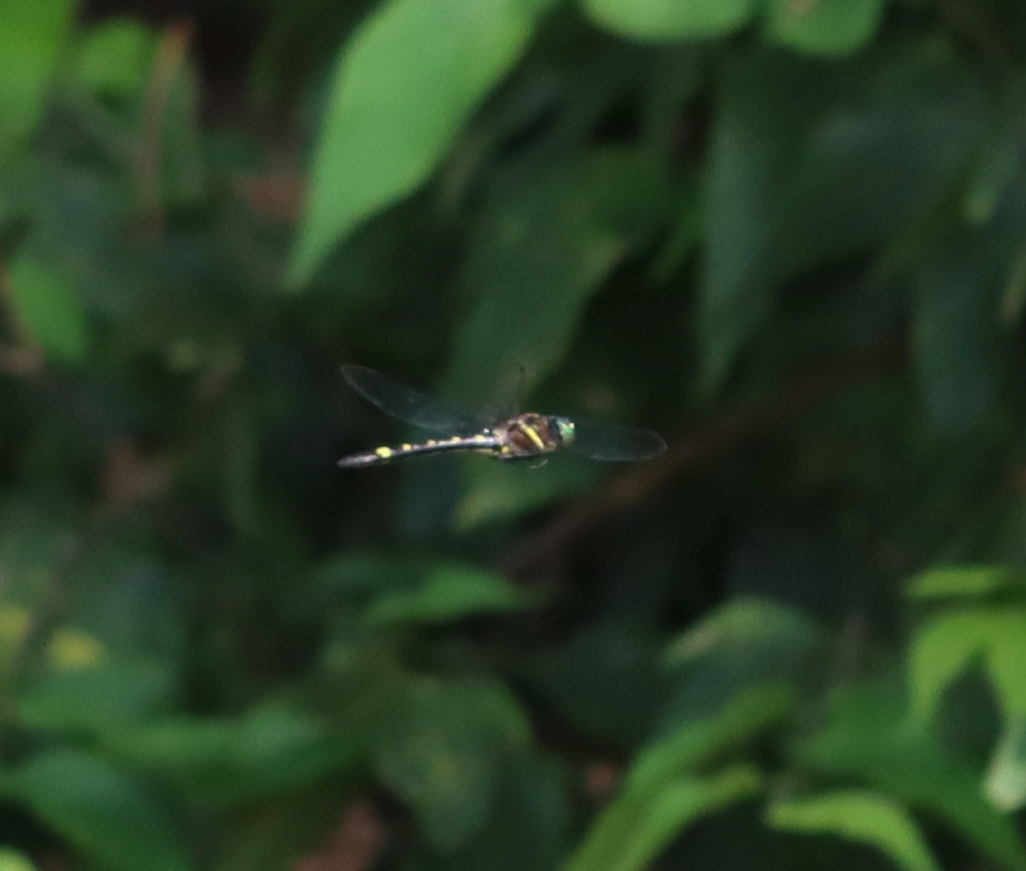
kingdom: Animalia
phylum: Arthropoda
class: Insecta
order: Odonata
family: Macromiidae
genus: Macromia
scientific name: Macromia illinoiensis
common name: Swift river cruiser
